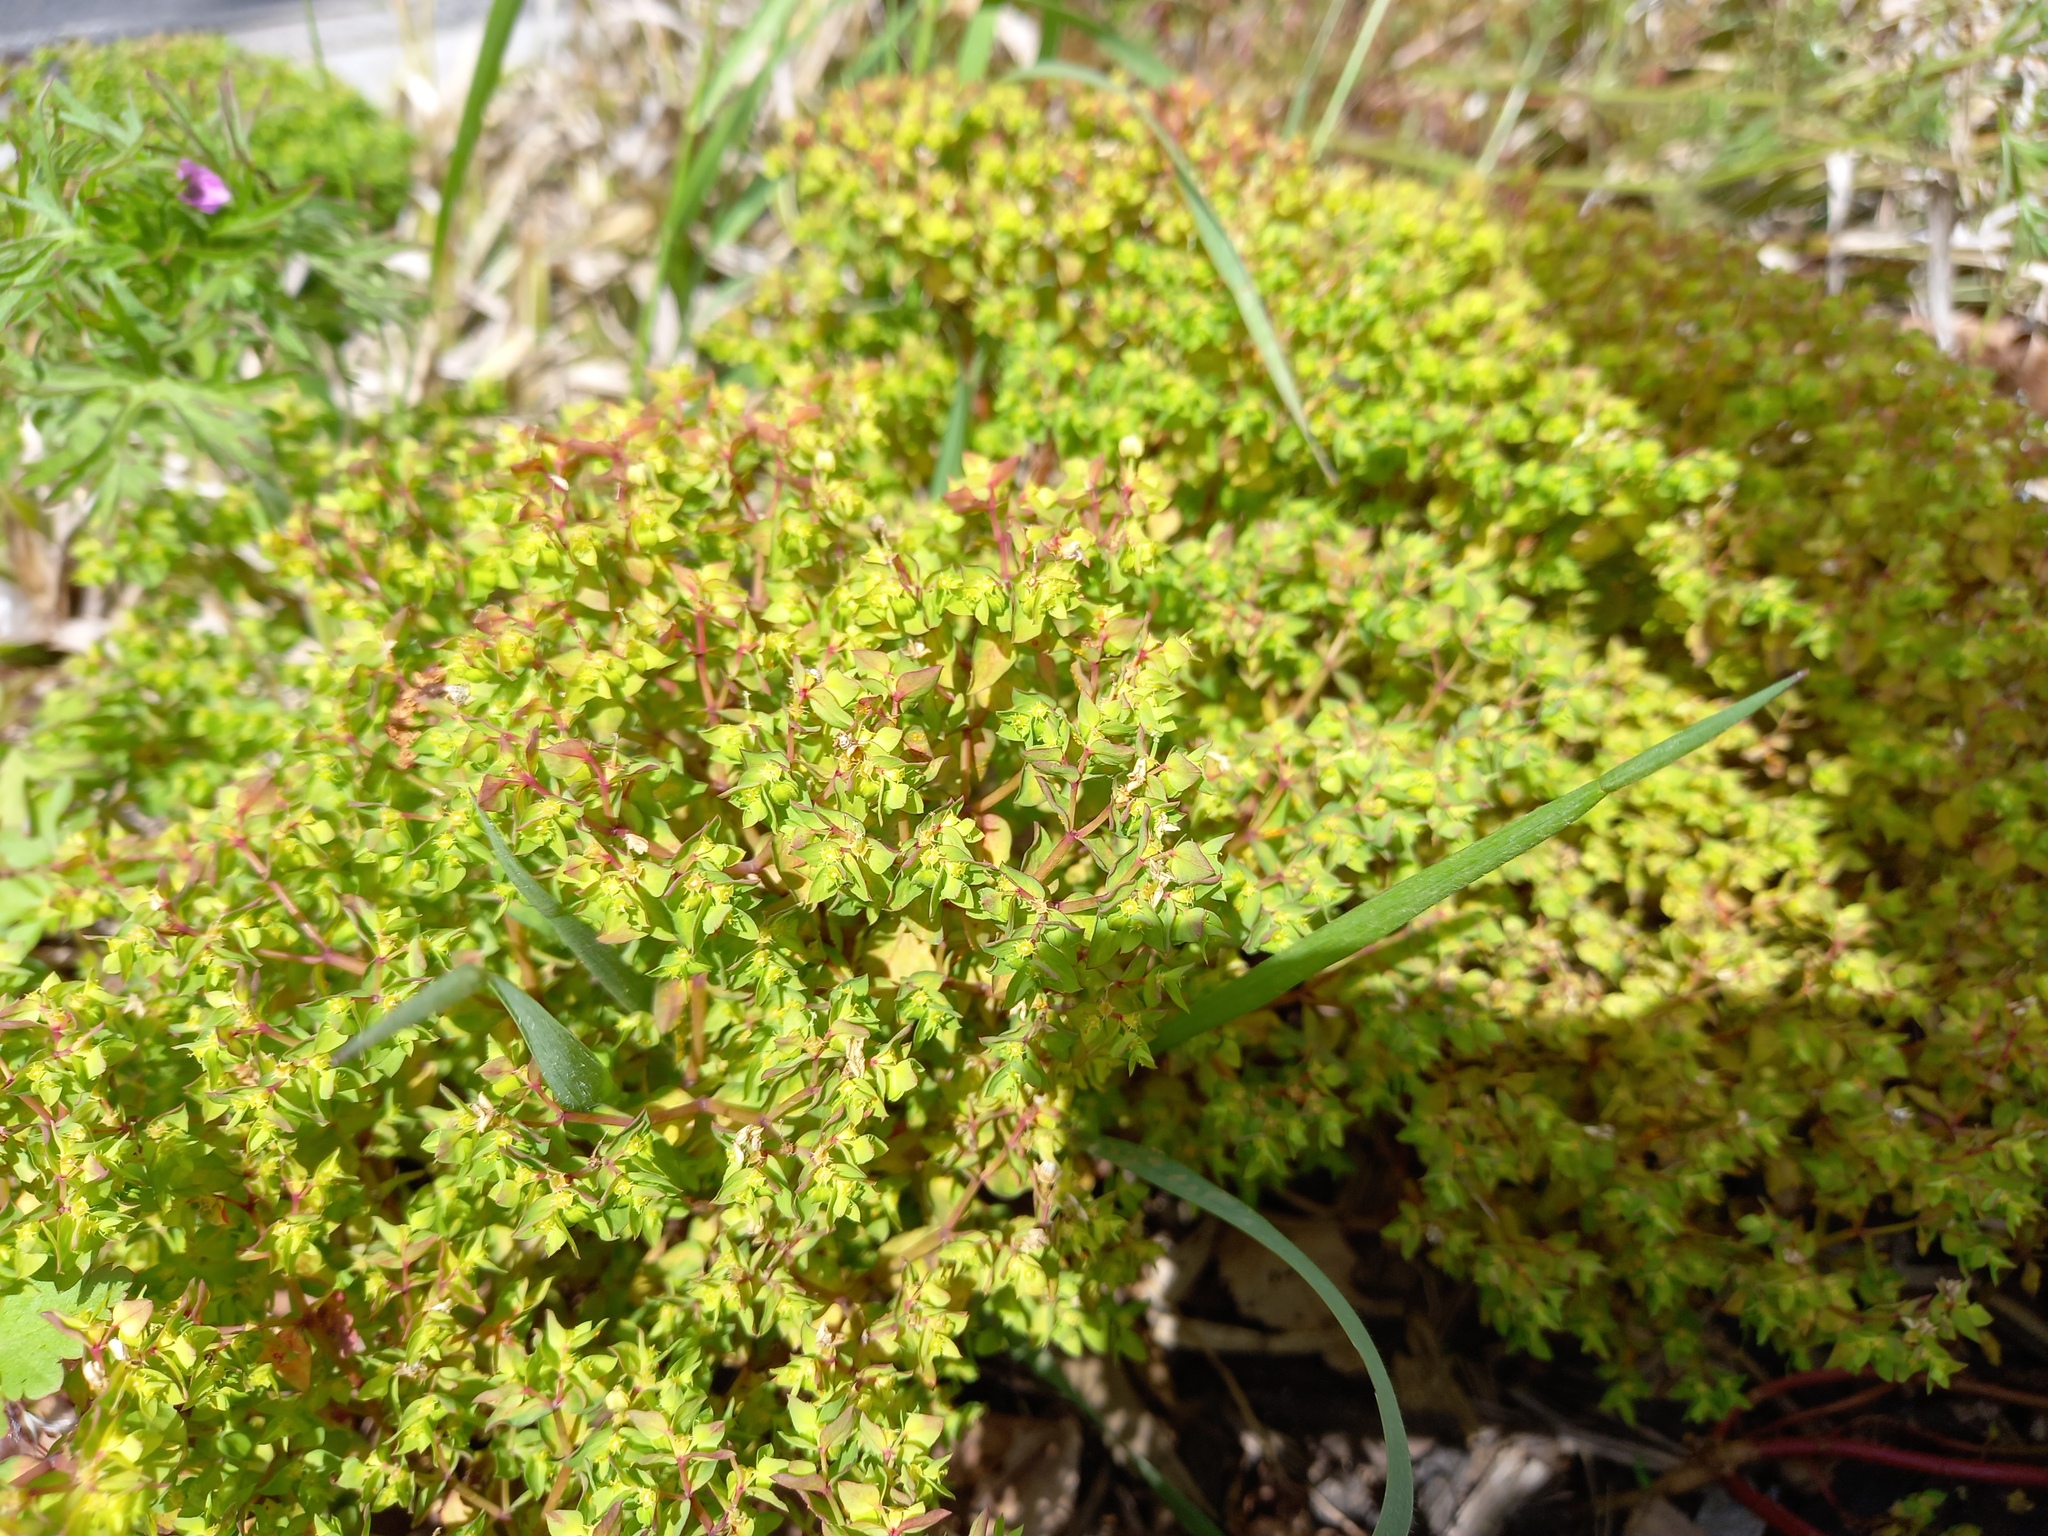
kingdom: Plantae
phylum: Tracheophyta
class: Magnoliopsida
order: Malpighiales
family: Euphorbiaceae
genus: Euphorbia
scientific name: Euphorbia peplus
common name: Petty spurge
